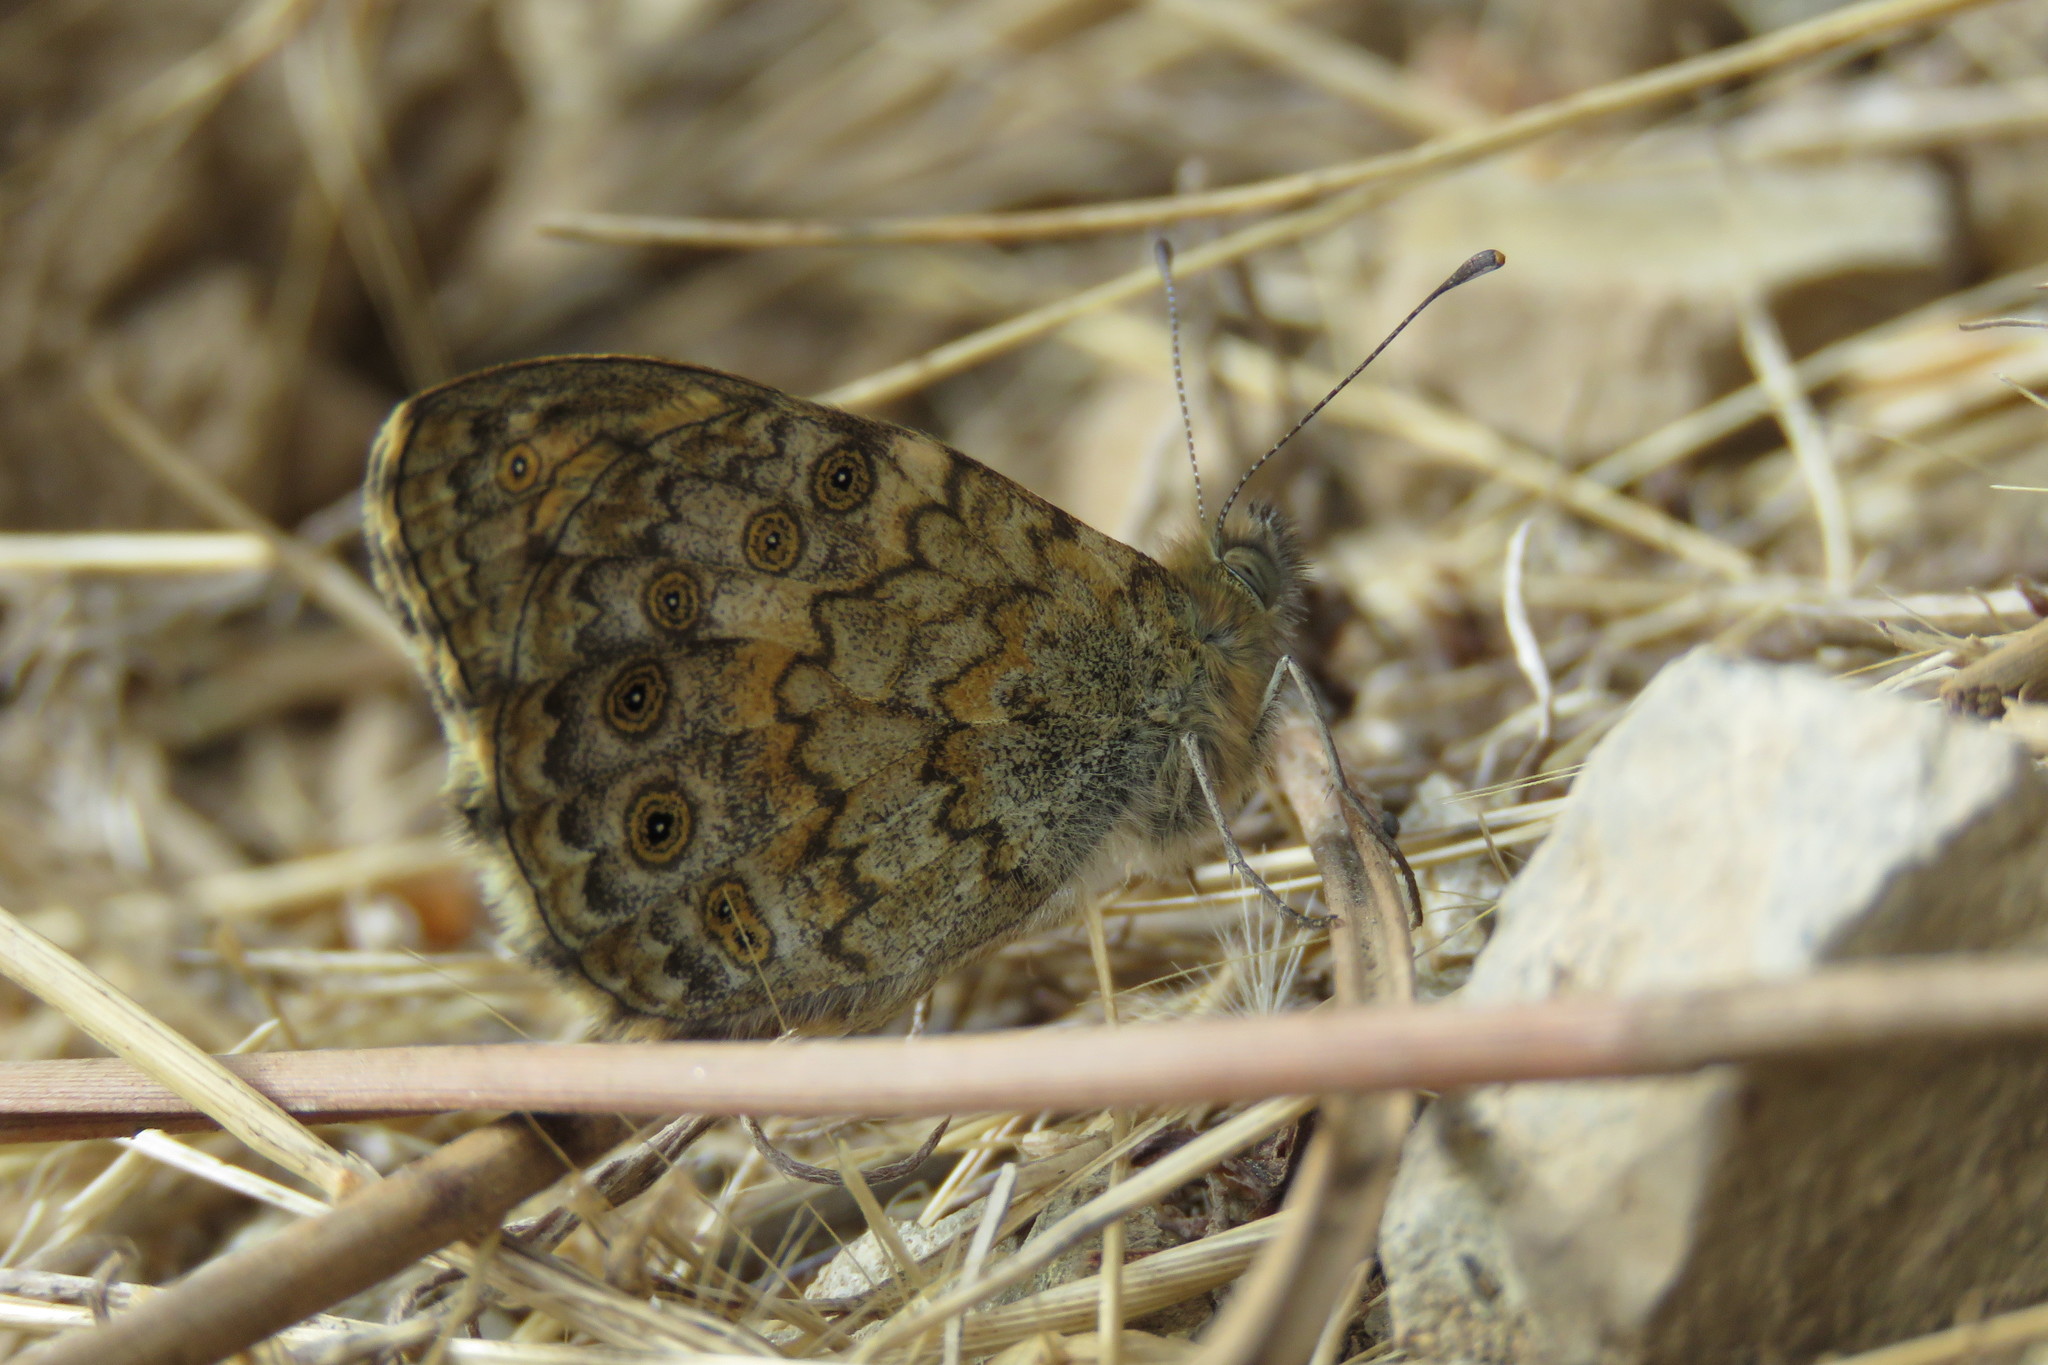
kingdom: Animalia
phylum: Arthropoda
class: Insecta
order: Lepidoptera
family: Nymphalidae
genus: Pararge
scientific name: Pararge Lasiommata megera
